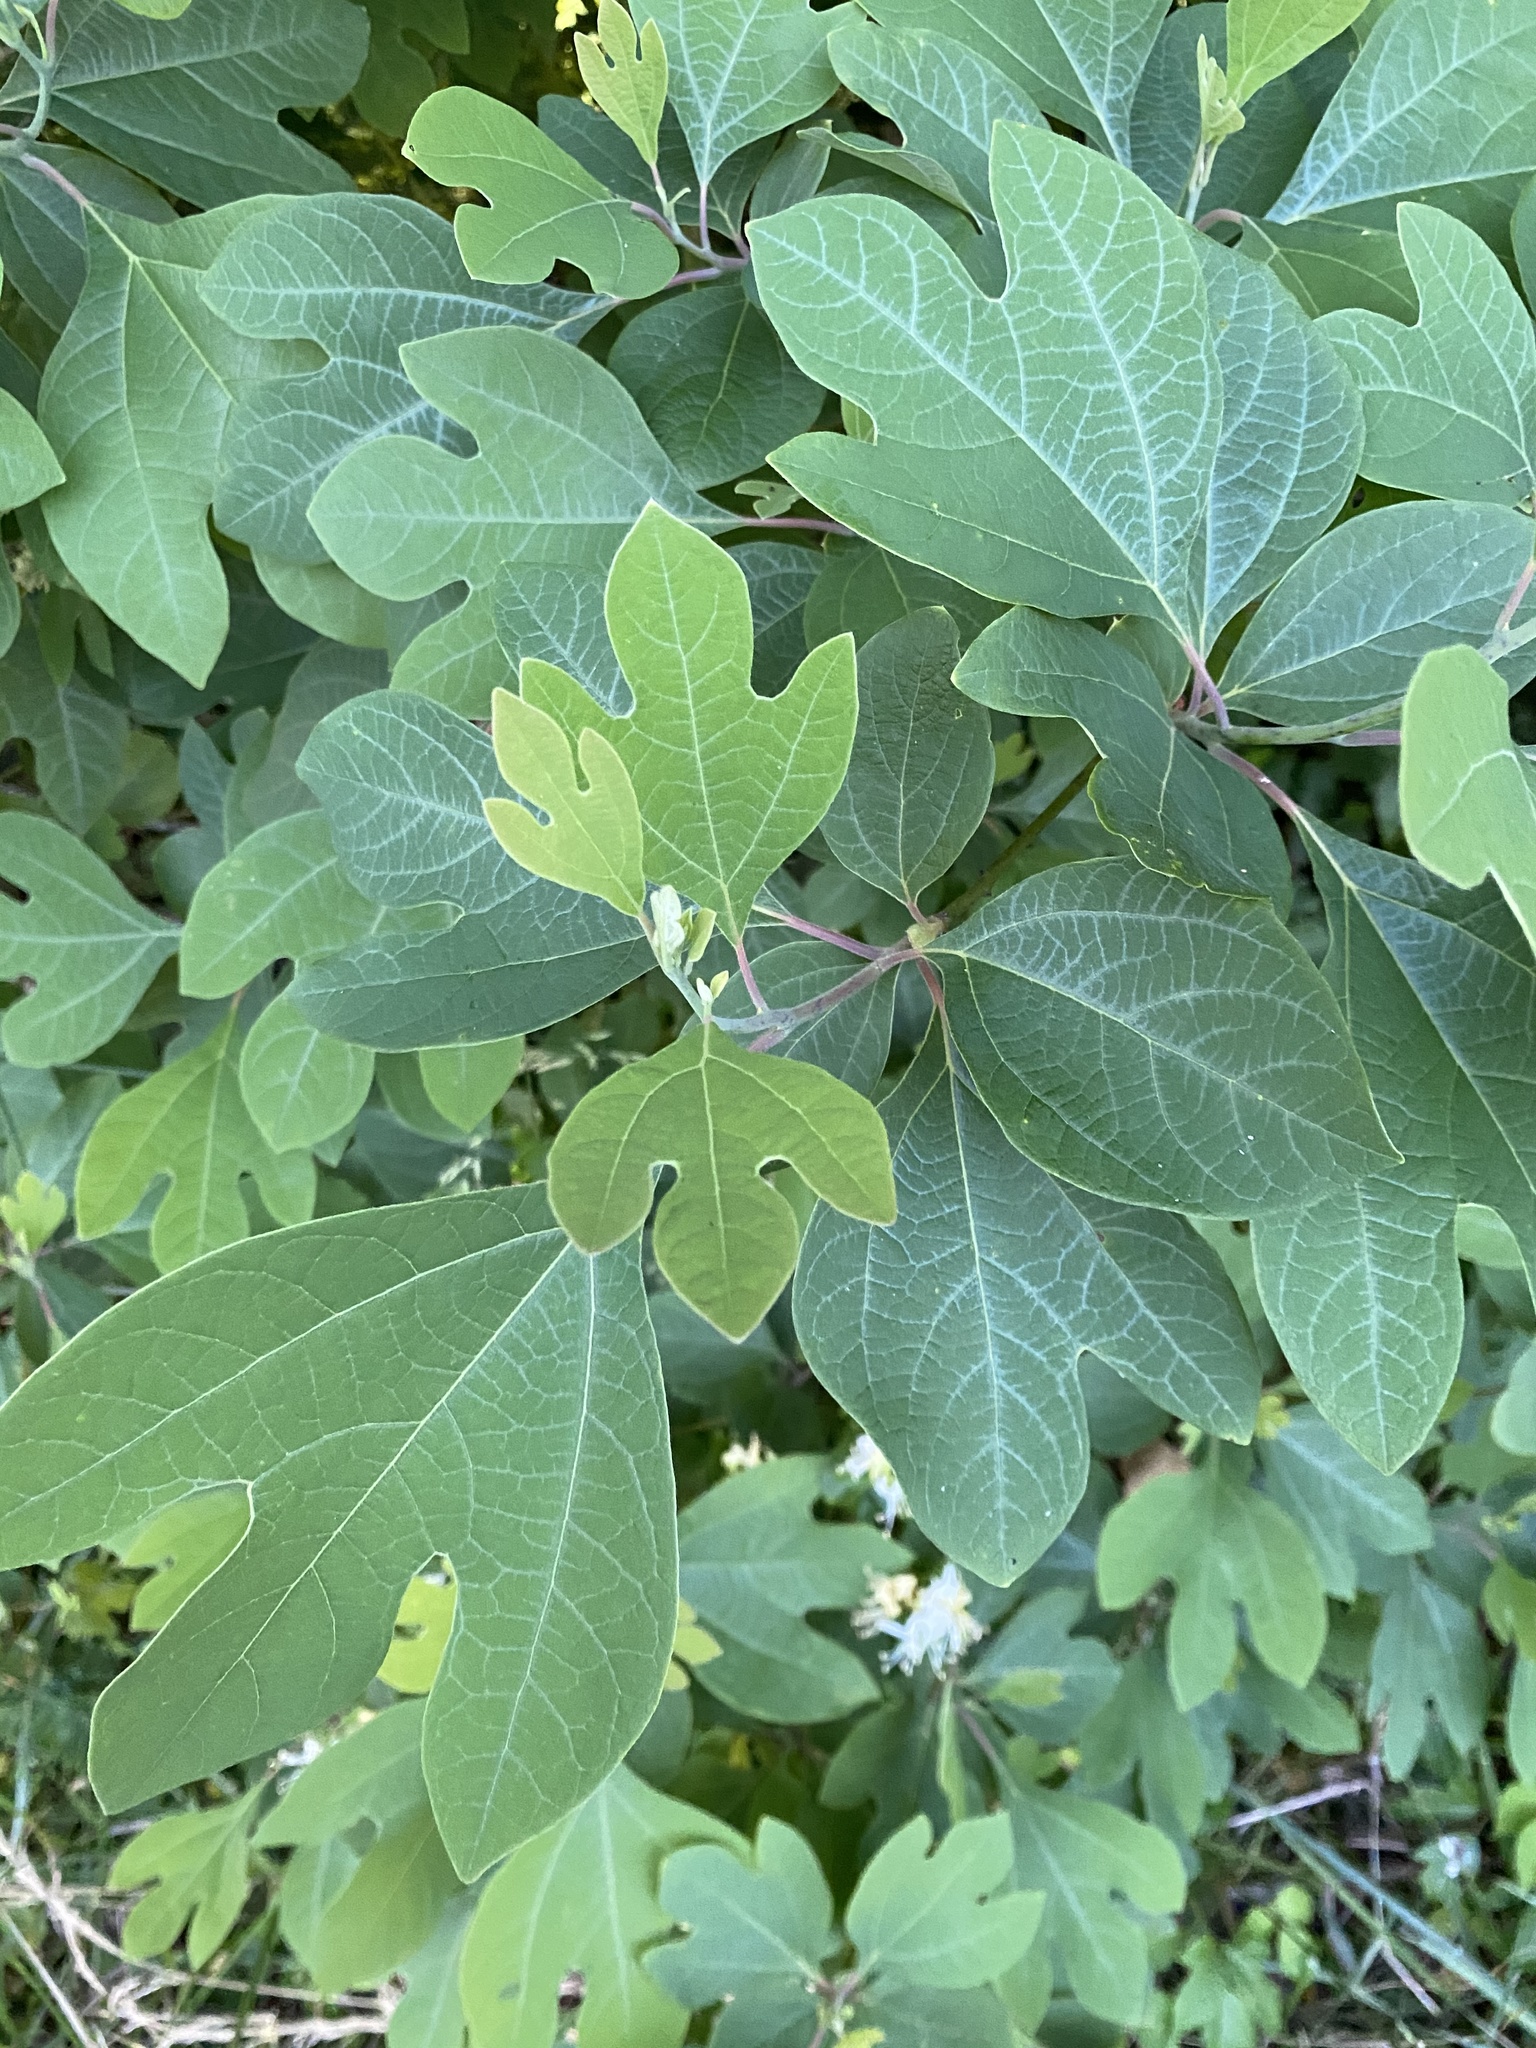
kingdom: Plantae
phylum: Tracheophyta
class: Magnoliopsida
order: Laurales
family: Lauraceae
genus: Sassafras
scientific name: Sassafras albidum
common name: Sassafras
